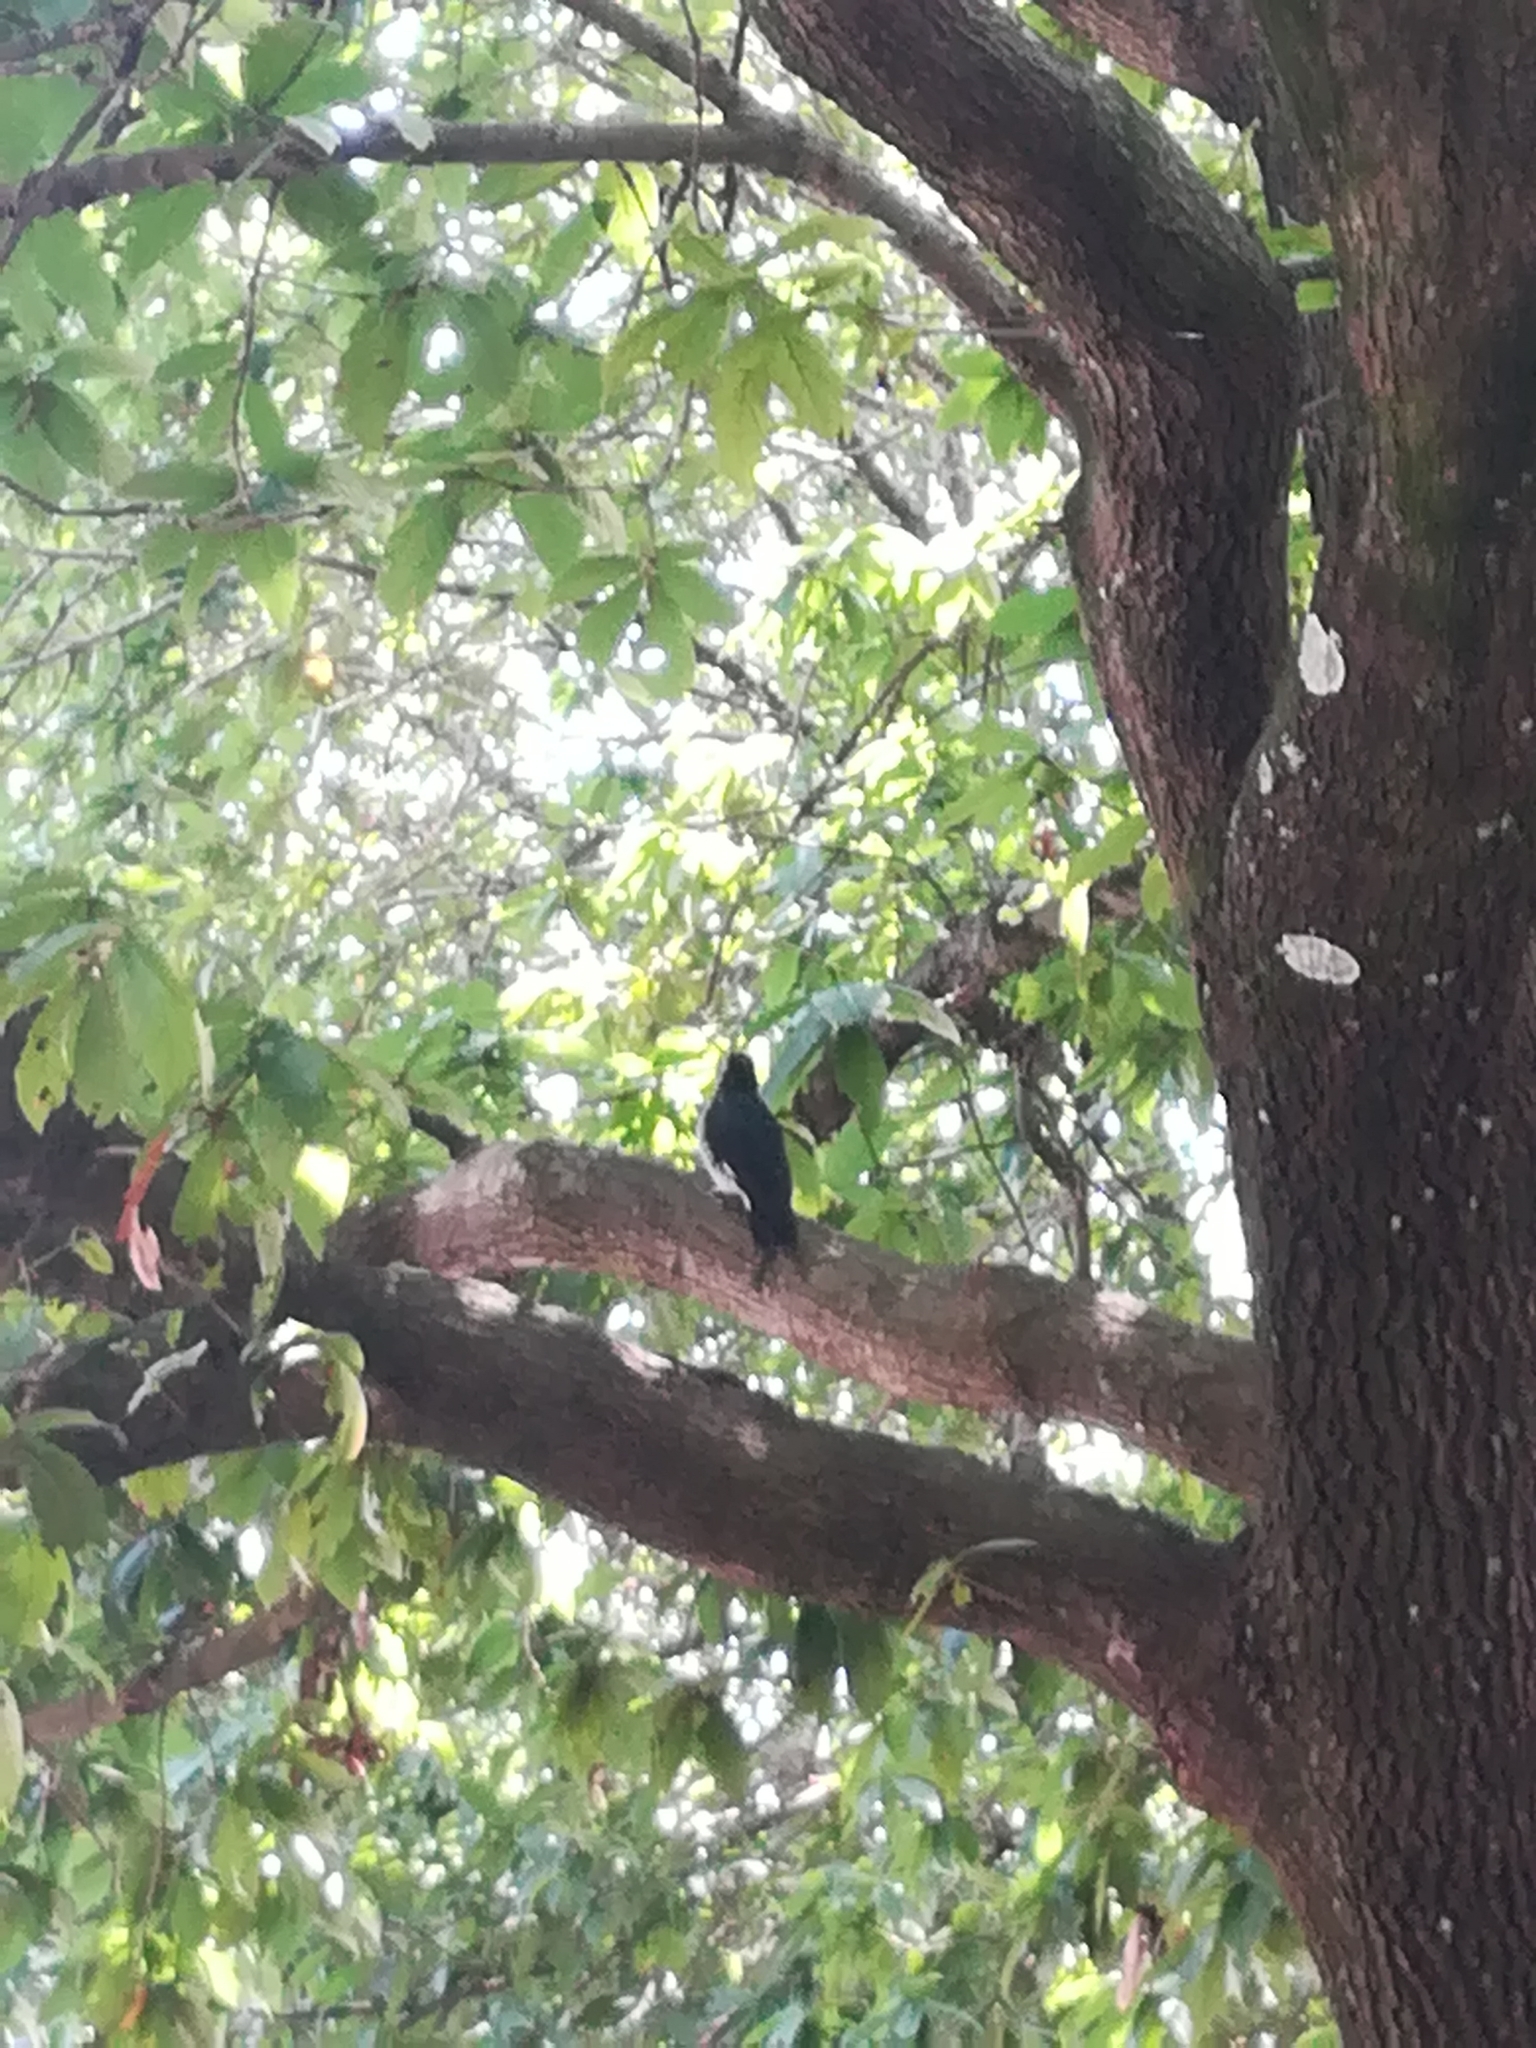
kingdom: Animalia
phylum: Chordata
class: Aves
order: Piciformes
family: Picidae
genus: Melanerpes
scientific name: Melanerpes formicivorus
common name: Acorn woodpecker
